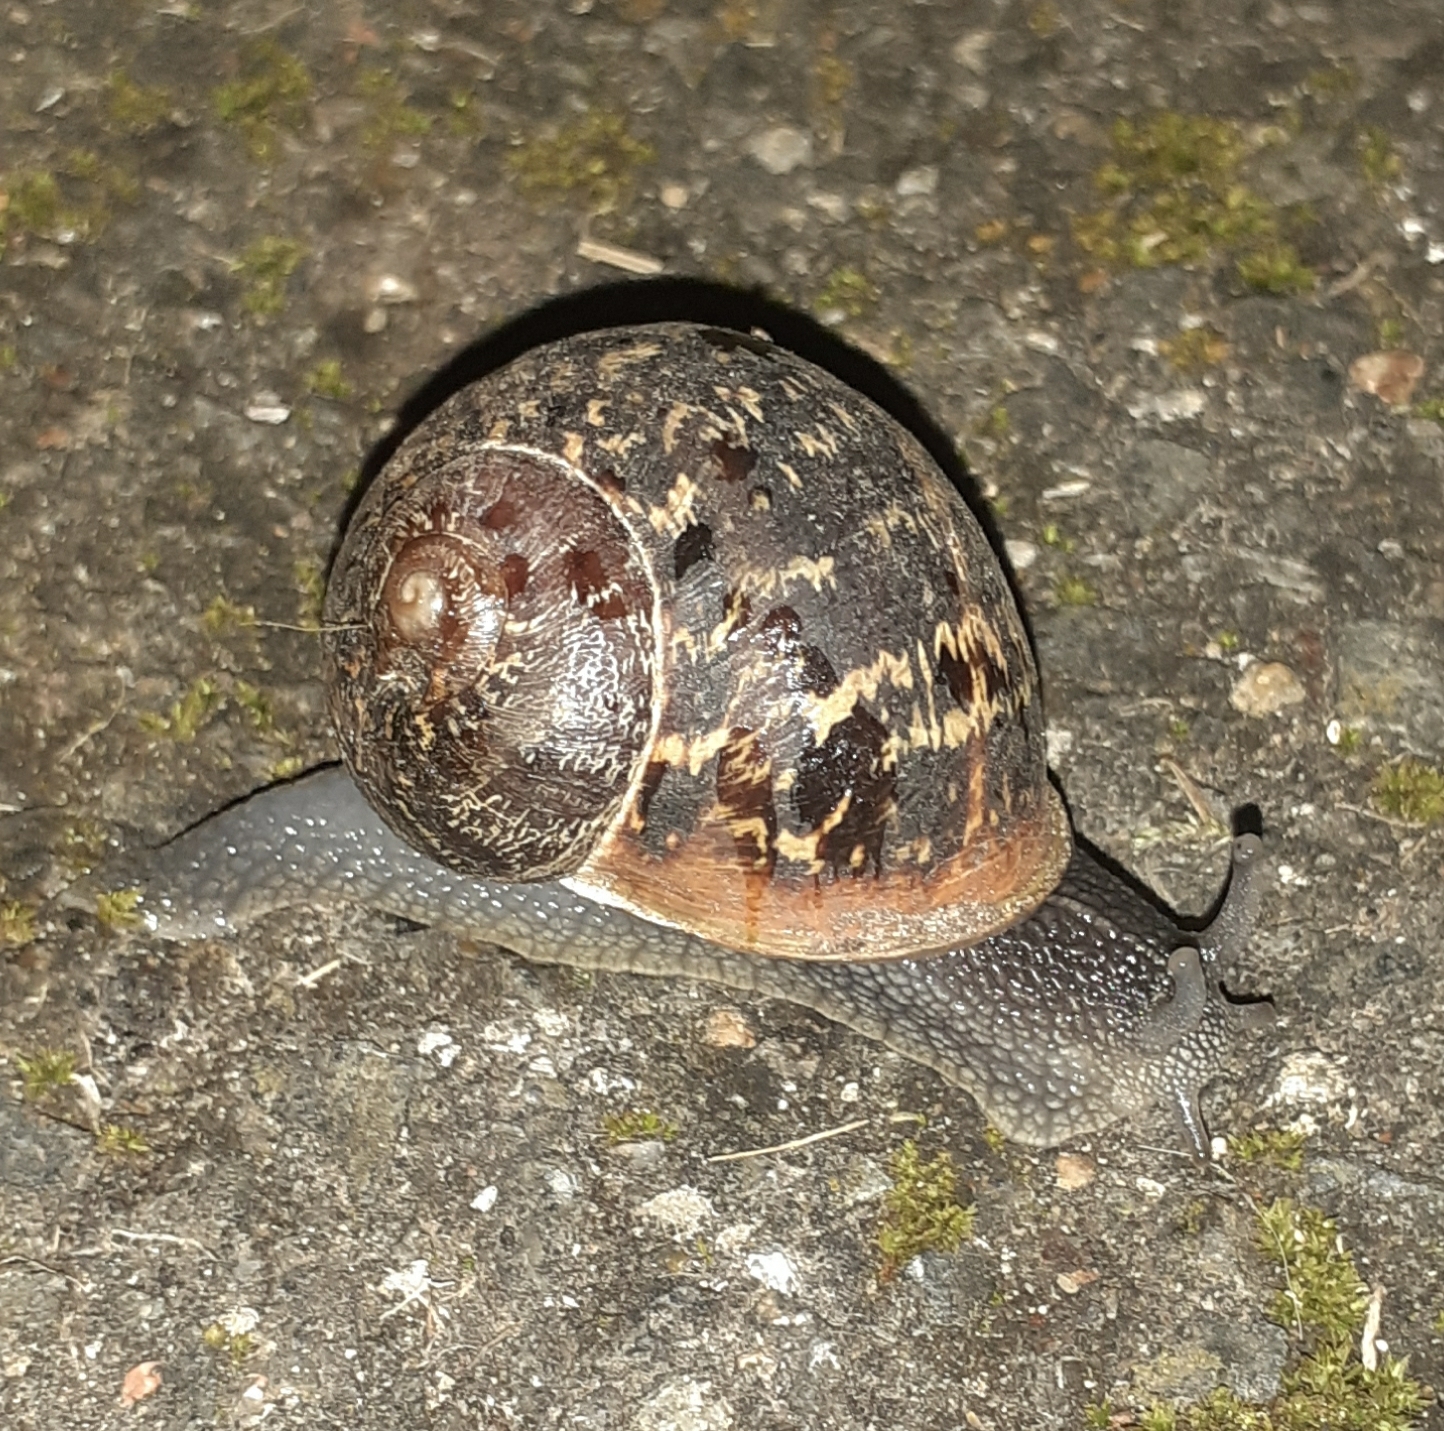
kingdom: Animalia
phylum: Mollusca
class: Gastropoda
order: Stylommatophora
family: Helicidae
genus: Cornu
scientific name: Cornu aspersum
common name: Brown garden snail
